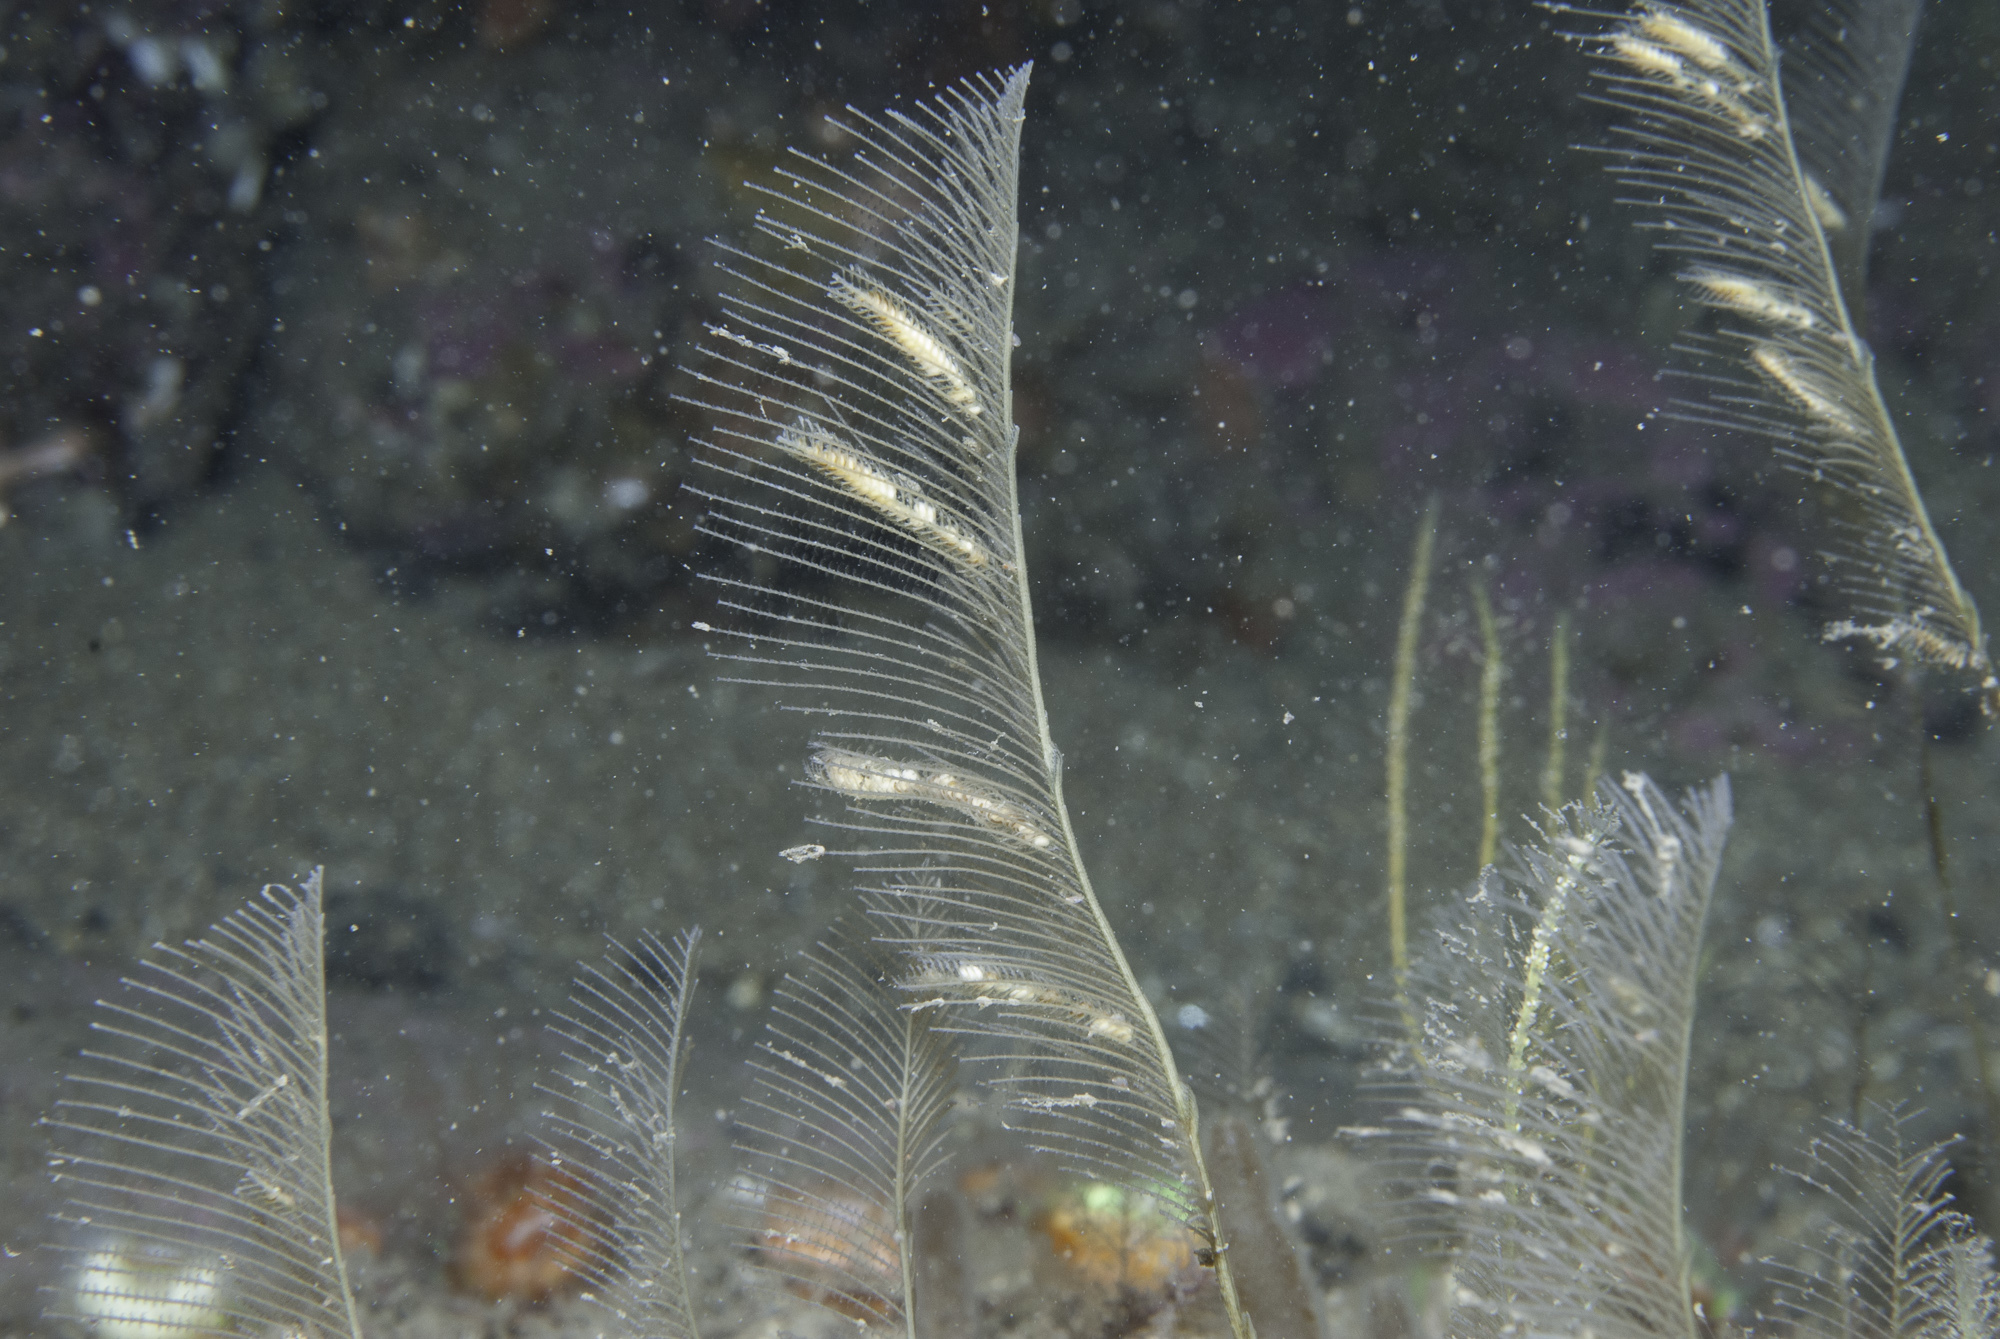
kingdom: Animalia
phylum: Cnidaria
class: Hydrozoa
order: Leptothecata
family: Aglaopheniidae
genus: Lytocarpia
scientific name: Lytocarpia myriophyllum
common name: Pheasant-tail hydroid
